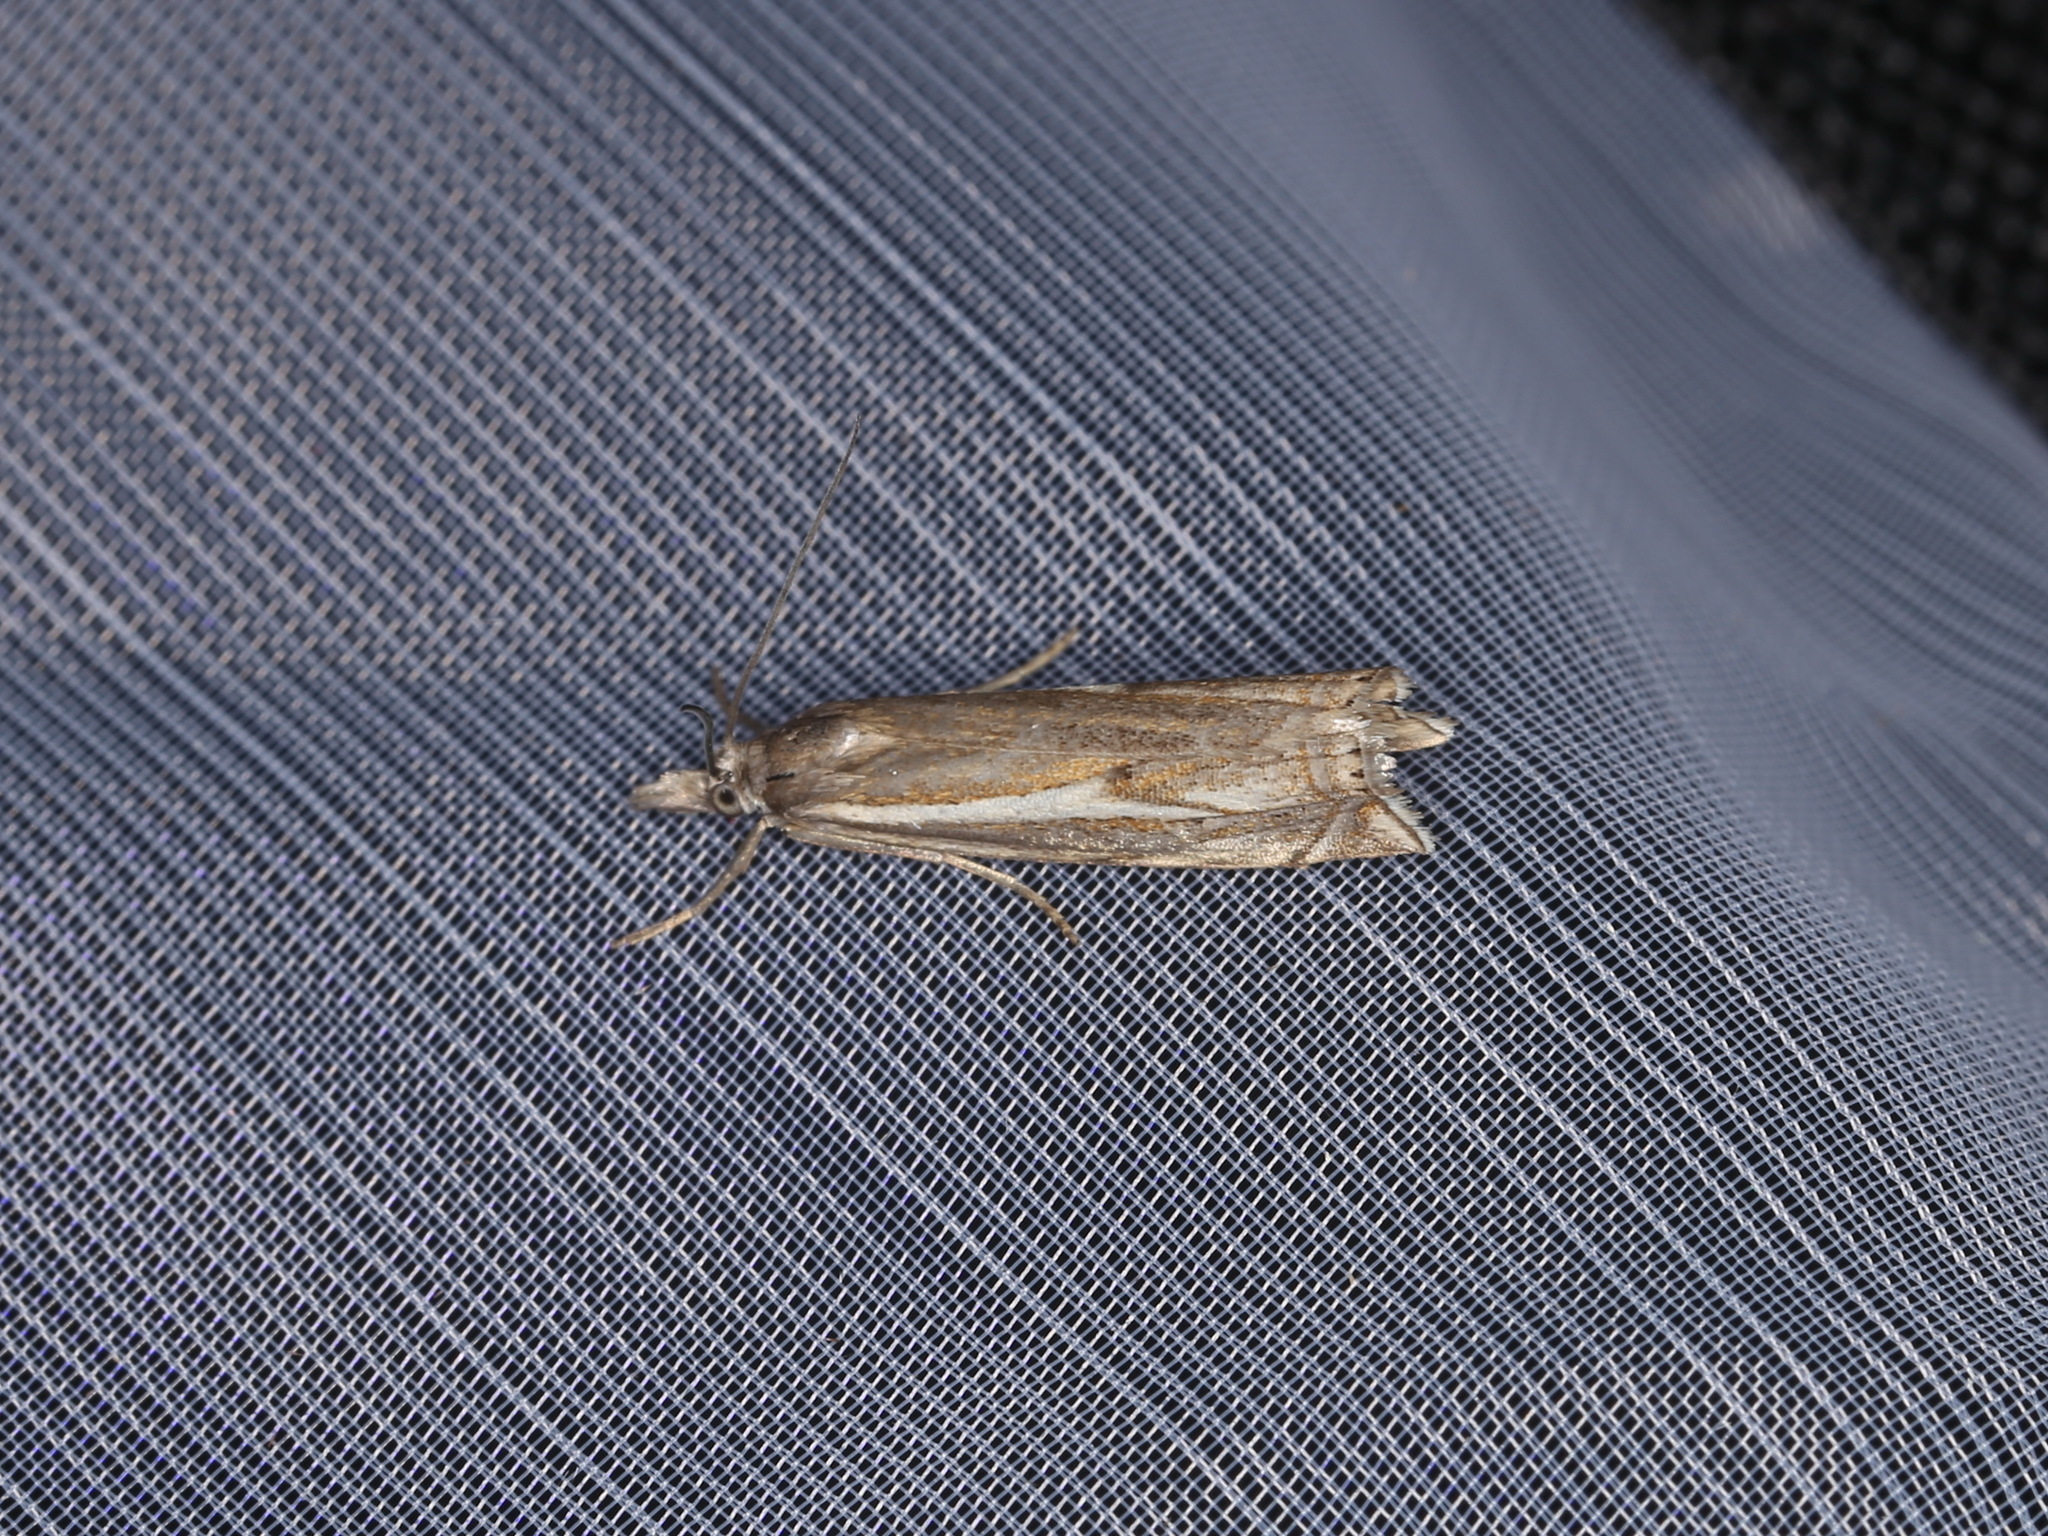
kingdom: Animalia
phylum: Arthropoda
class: Insecta
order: Lepidoptera
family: Crambidae
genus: Crambus
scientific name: Crambus nemorella
